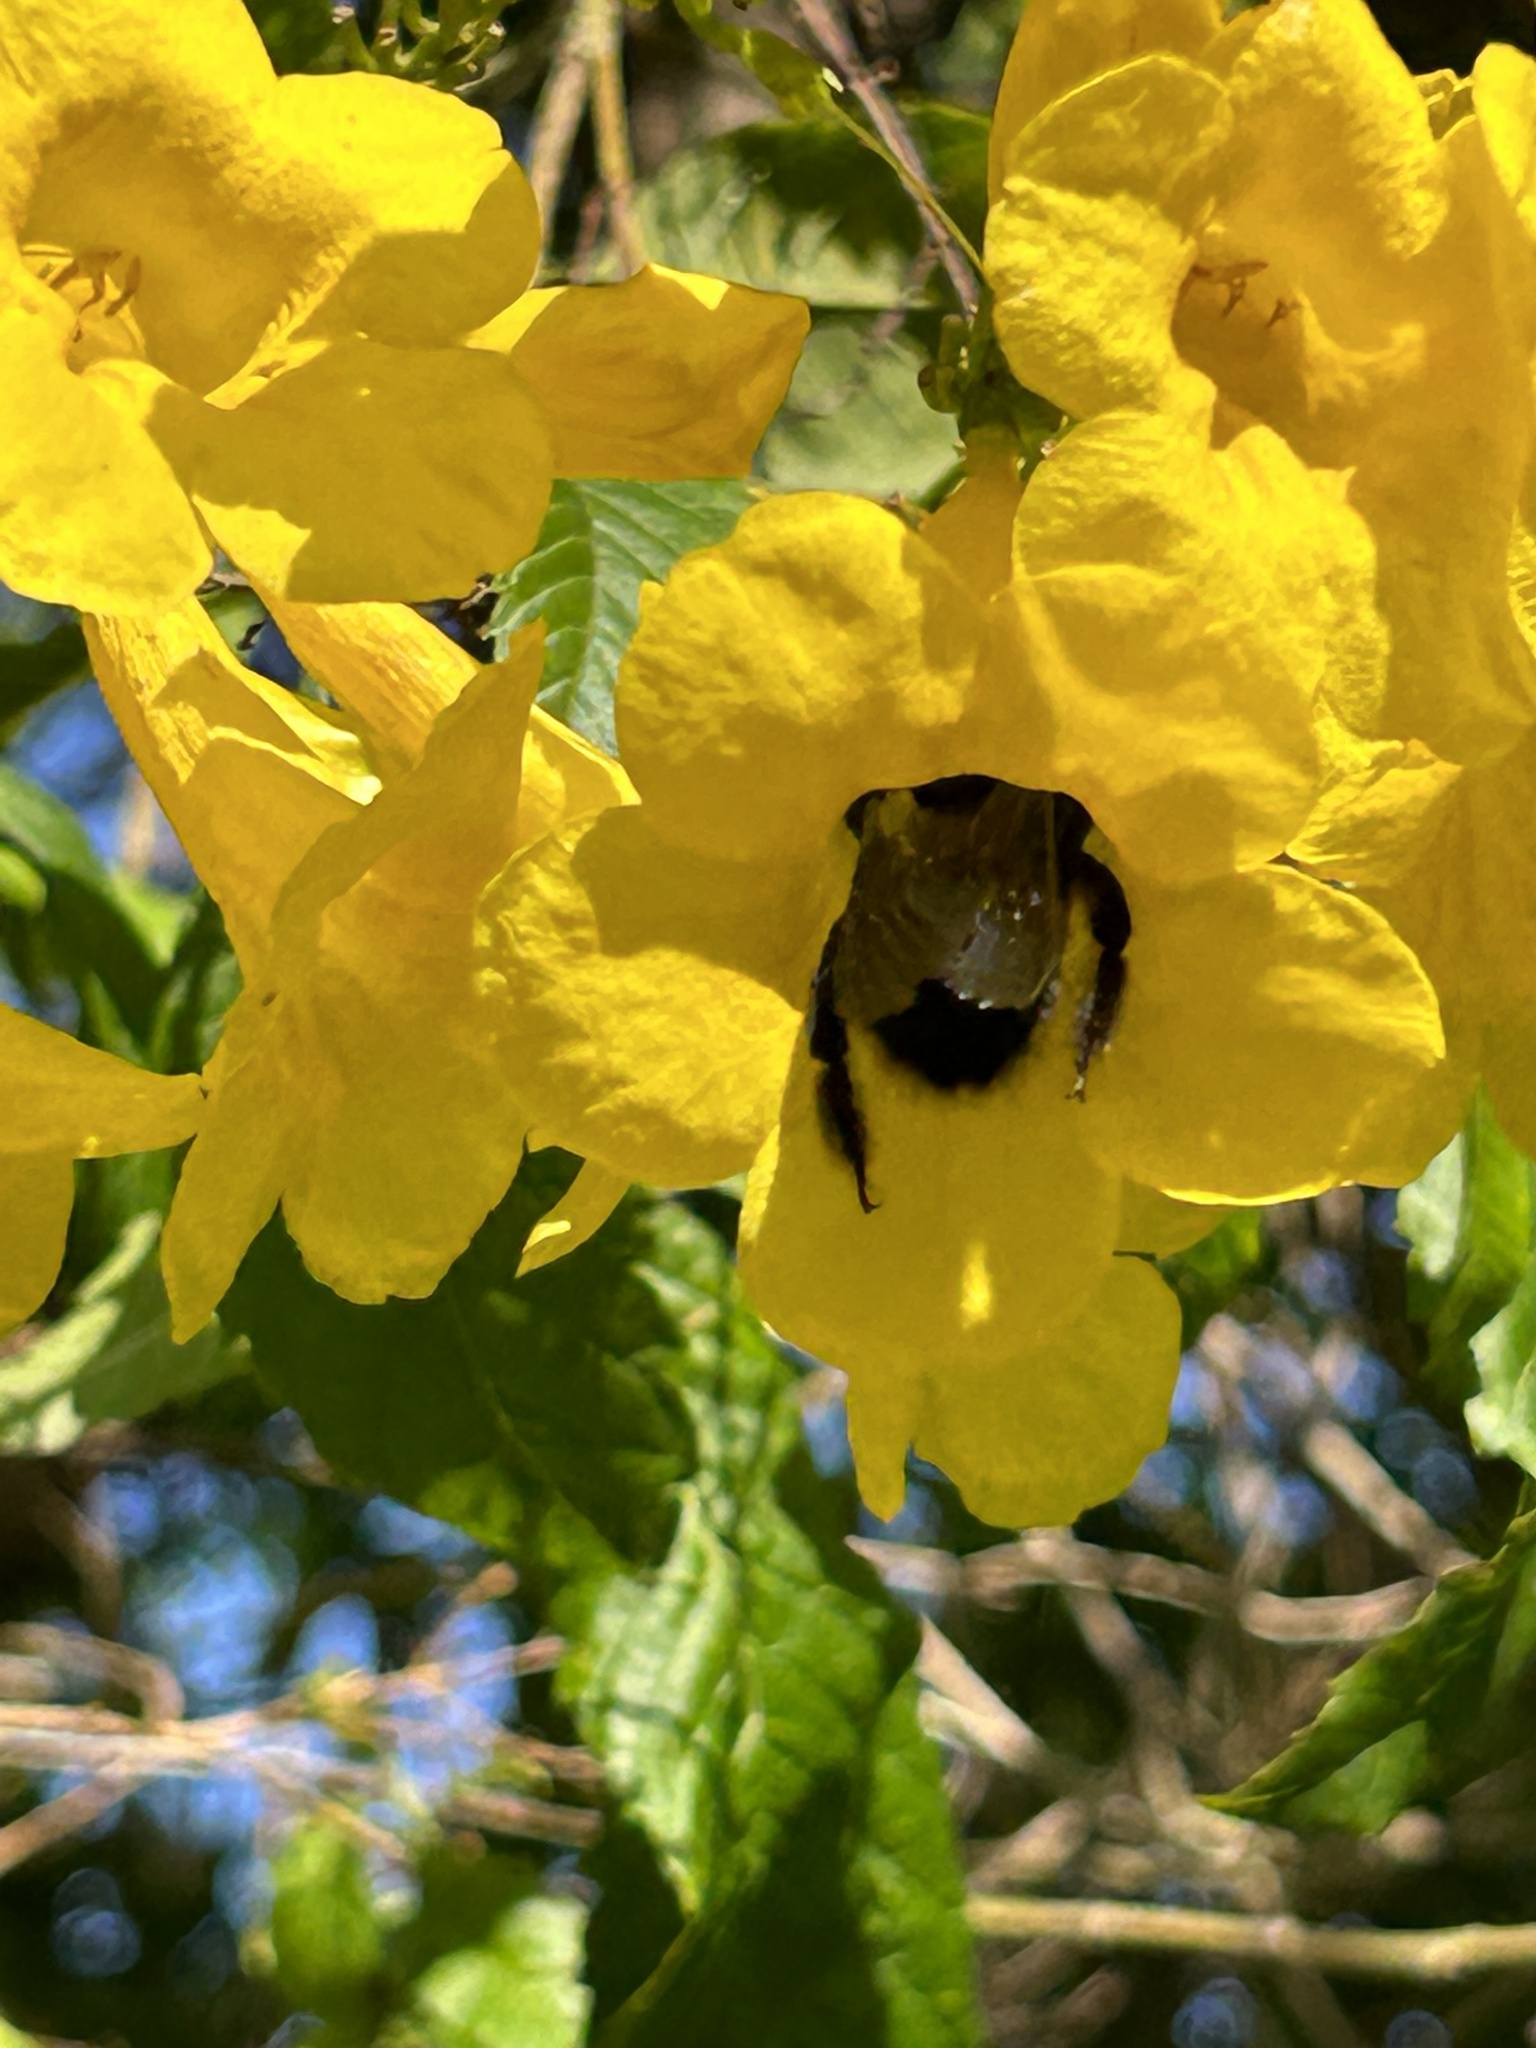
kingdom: Animalia
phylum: Arthropoda
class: Insecta
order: Hymenoptera
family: Apidae
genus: Xylocopa
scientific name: Xylocopa nasalis
